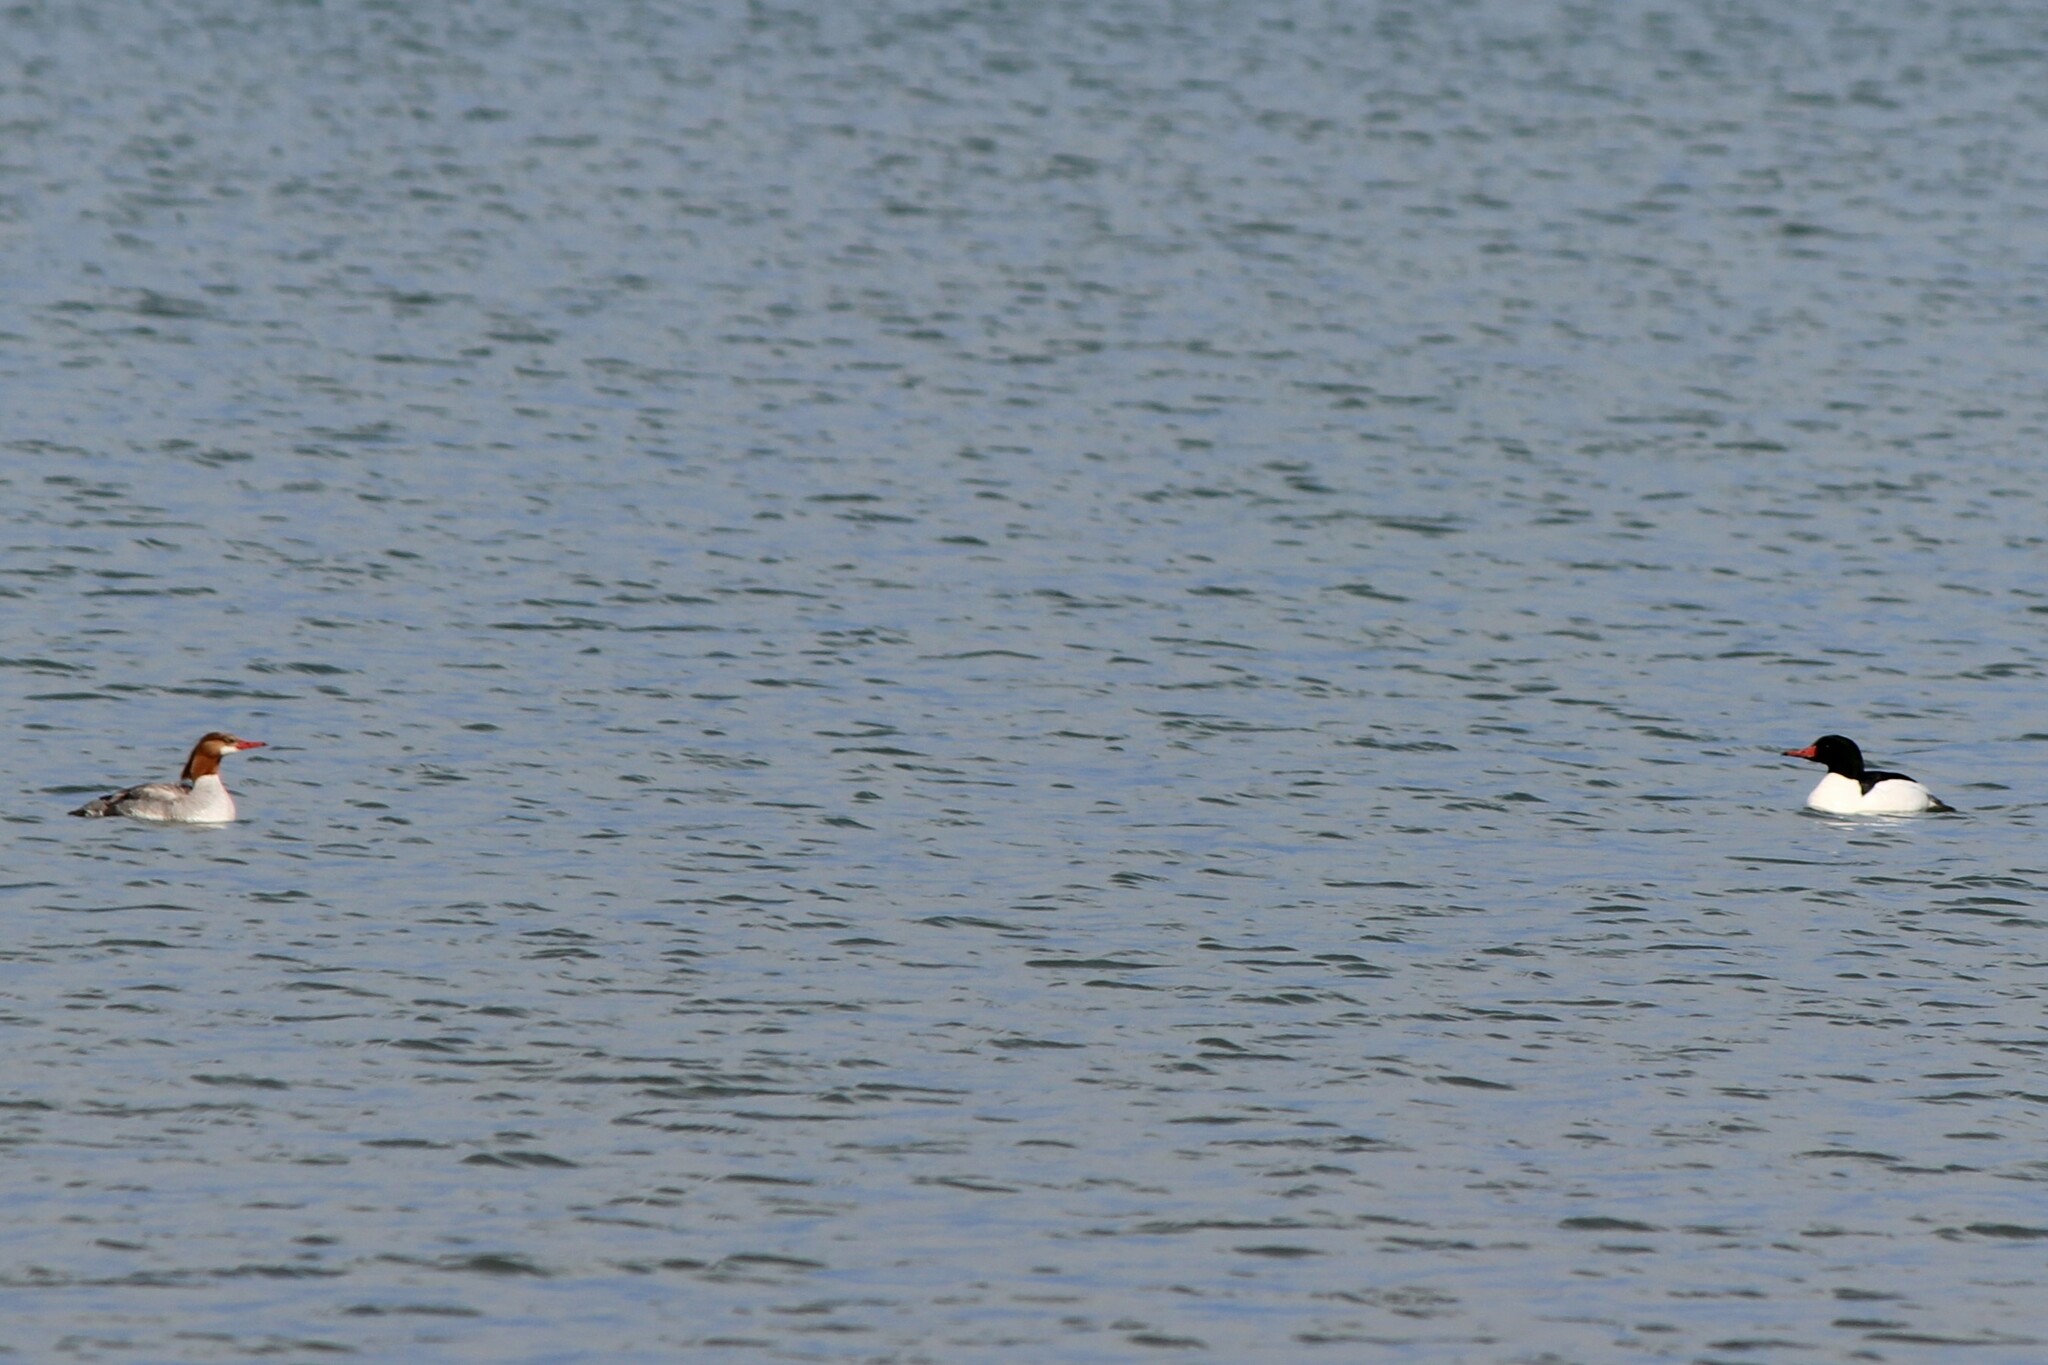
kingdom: Animalia
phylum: Chordata
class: Aves
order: Anseriformes
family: Anatidae
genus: Mergus
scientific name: Mergus merganser
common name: Common merganser
